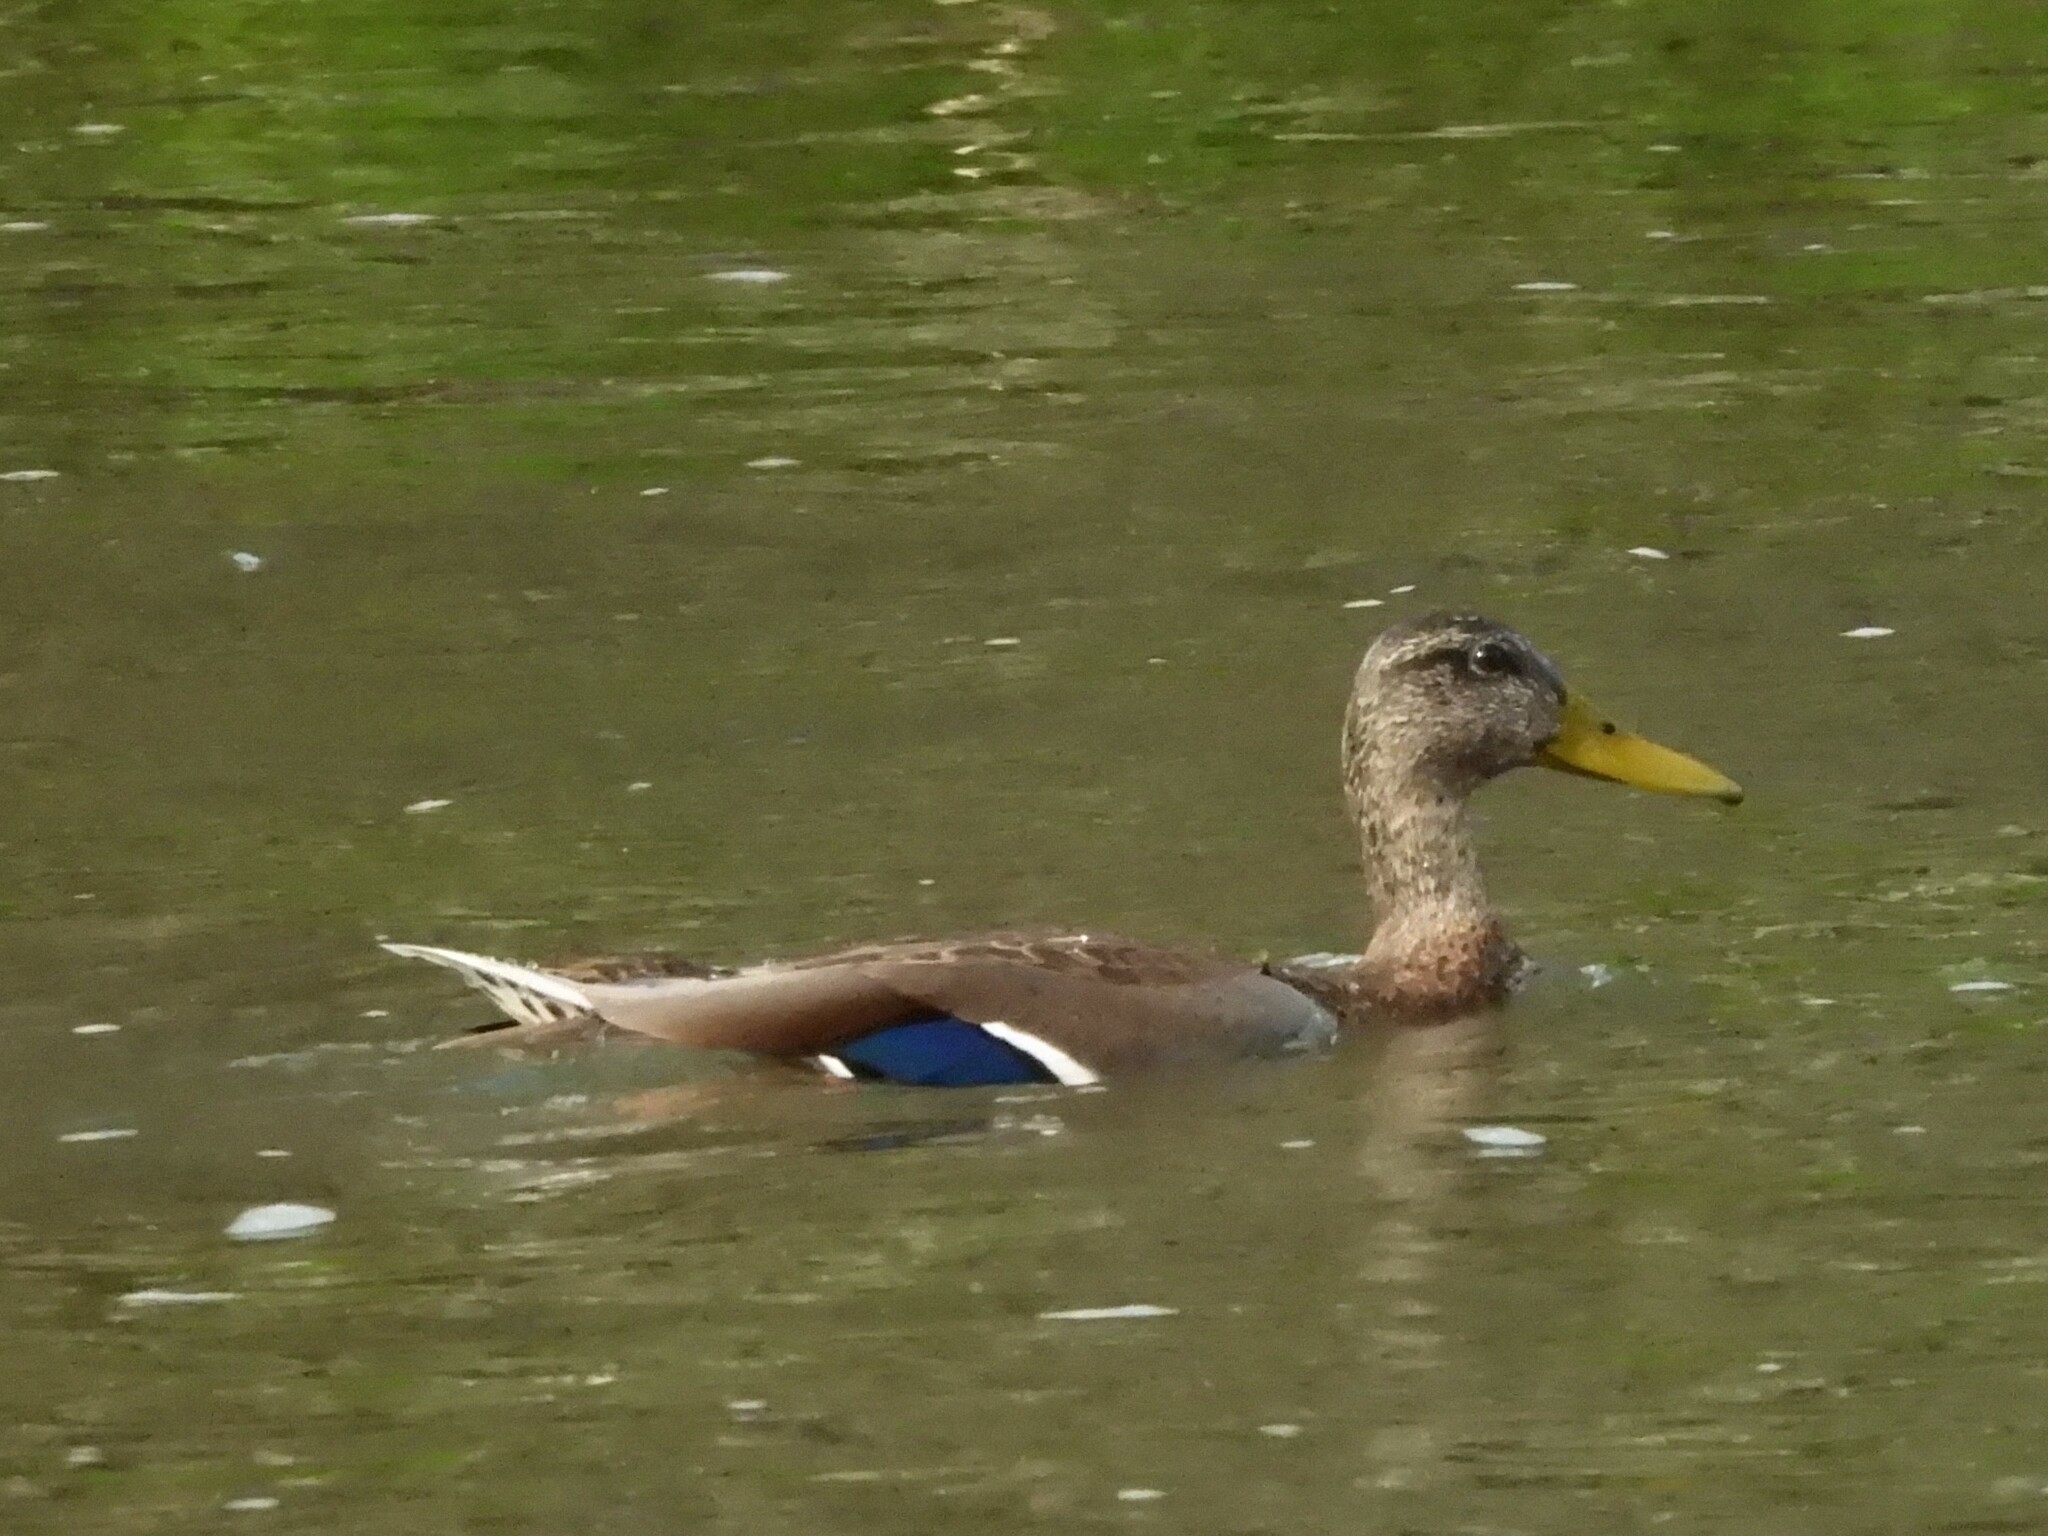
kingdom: Animalia
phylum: Chordata
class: Aves
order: Anseriformes
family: Anatidae
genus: Anas
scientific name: Anas platyrhynchos
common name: Mallard
